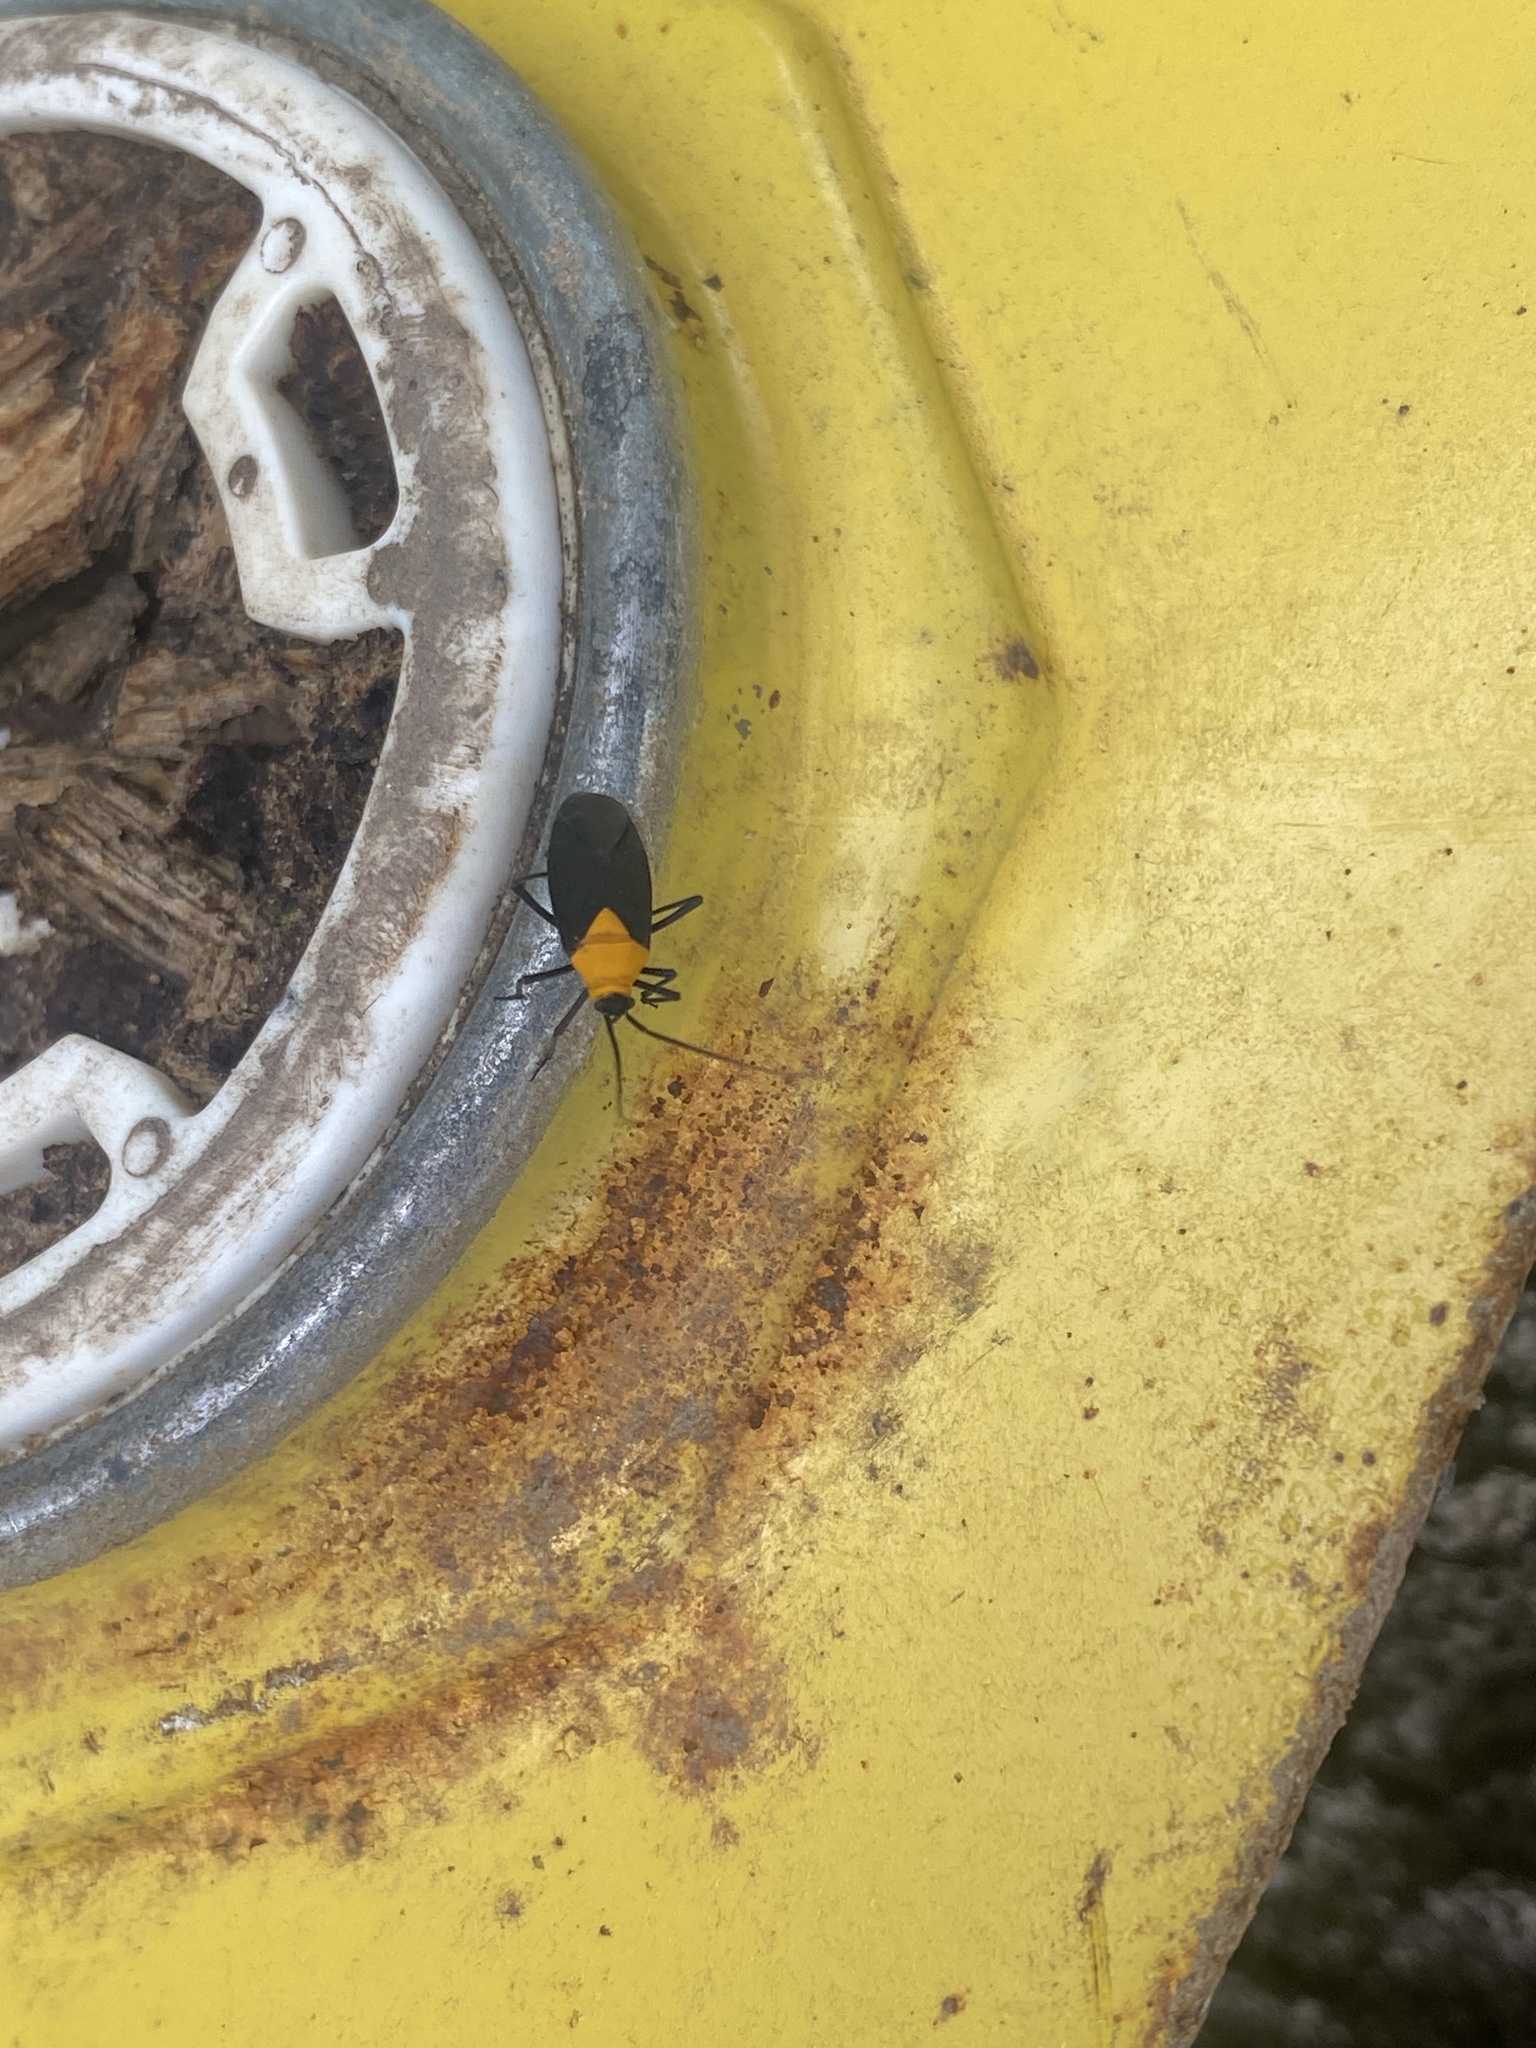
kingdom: Animalia
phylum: Arthropoda
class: Insecta
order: Hemiptera
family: Miridae
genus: Prepops
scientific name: Prepops insitivus
